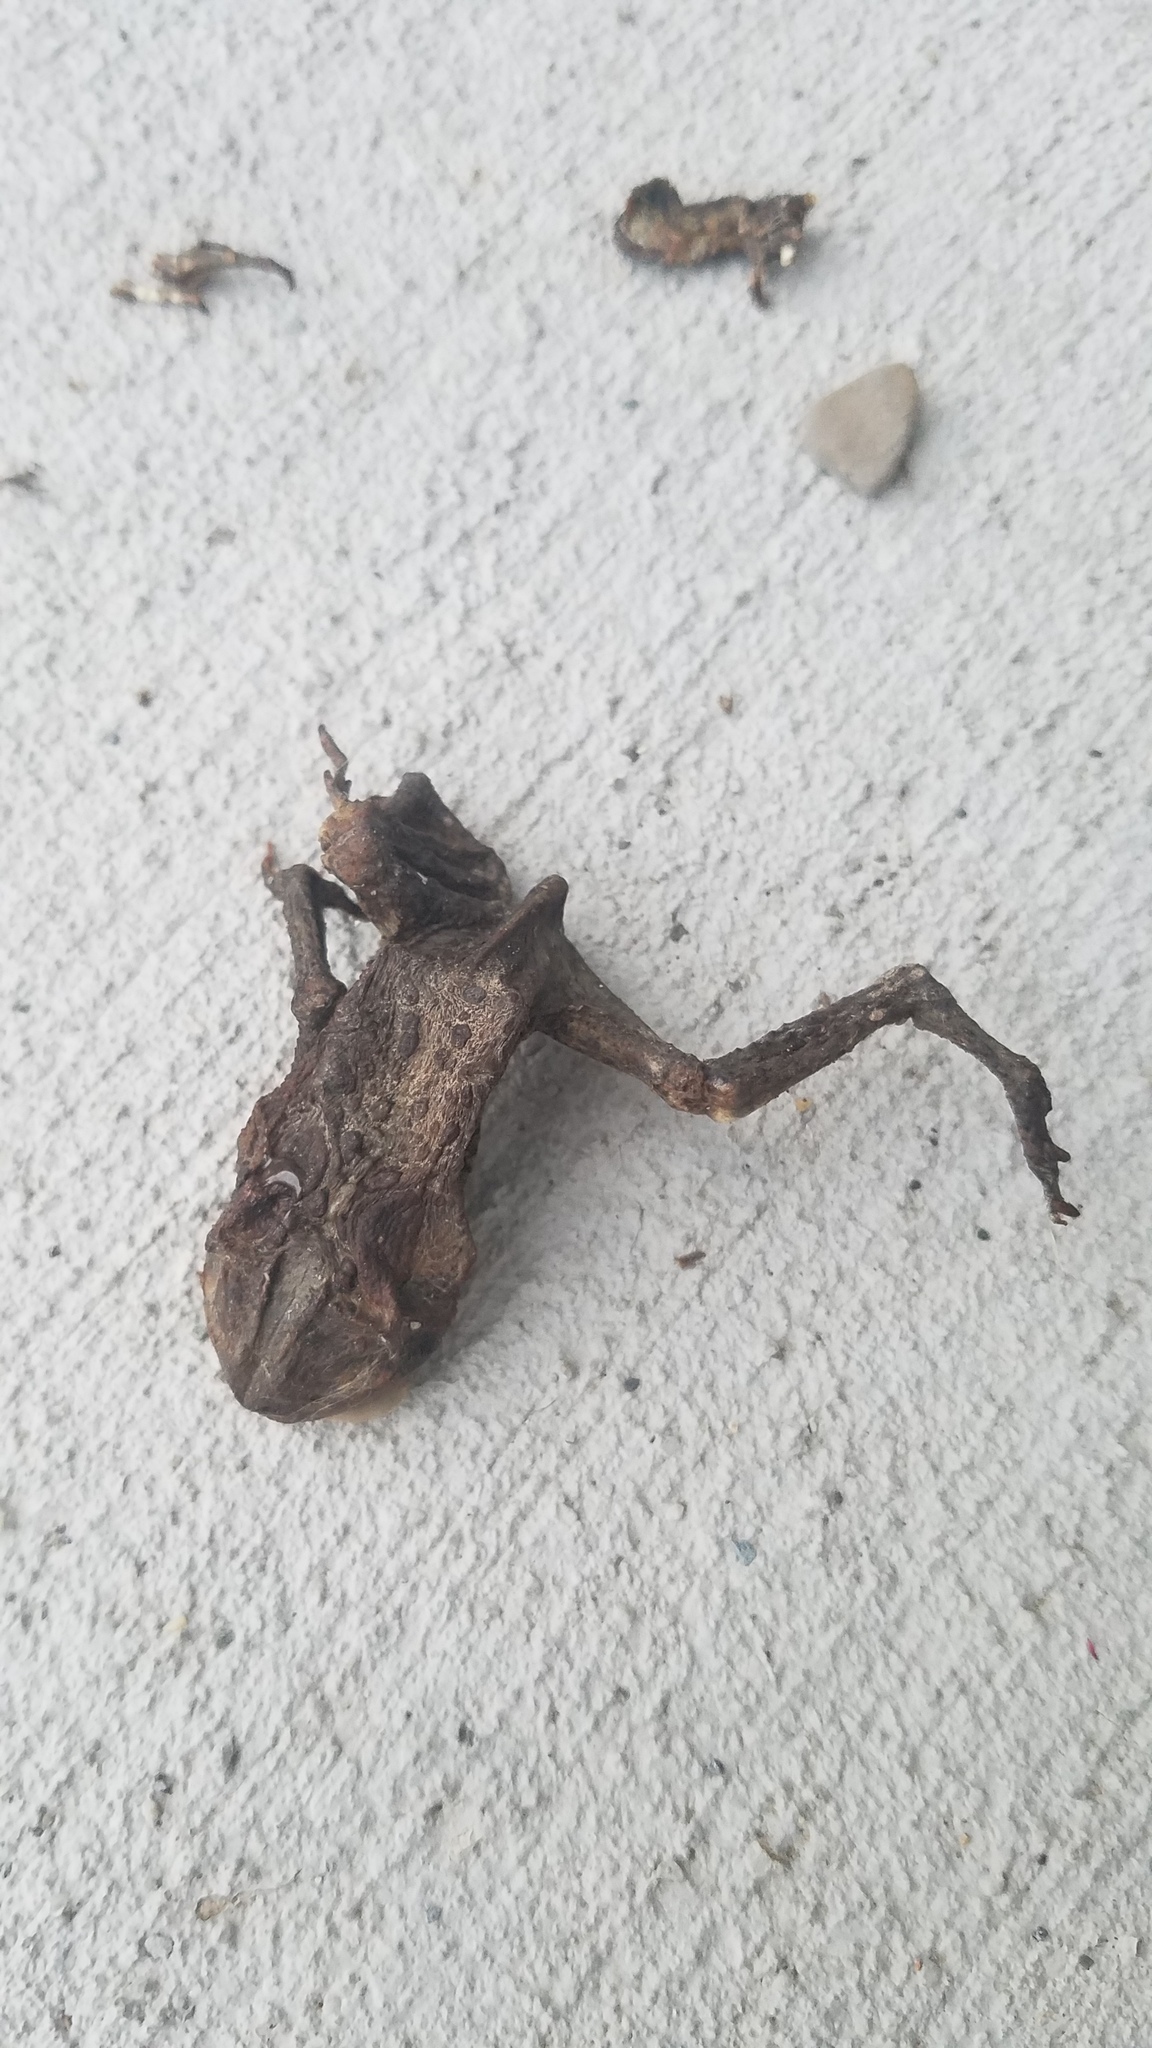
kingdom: Animalia
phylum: Chordata
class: Amphibia
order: Anura
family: Bufonidae
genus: Anaxyrus
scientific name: Anaxyrus americanus
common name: American toad
